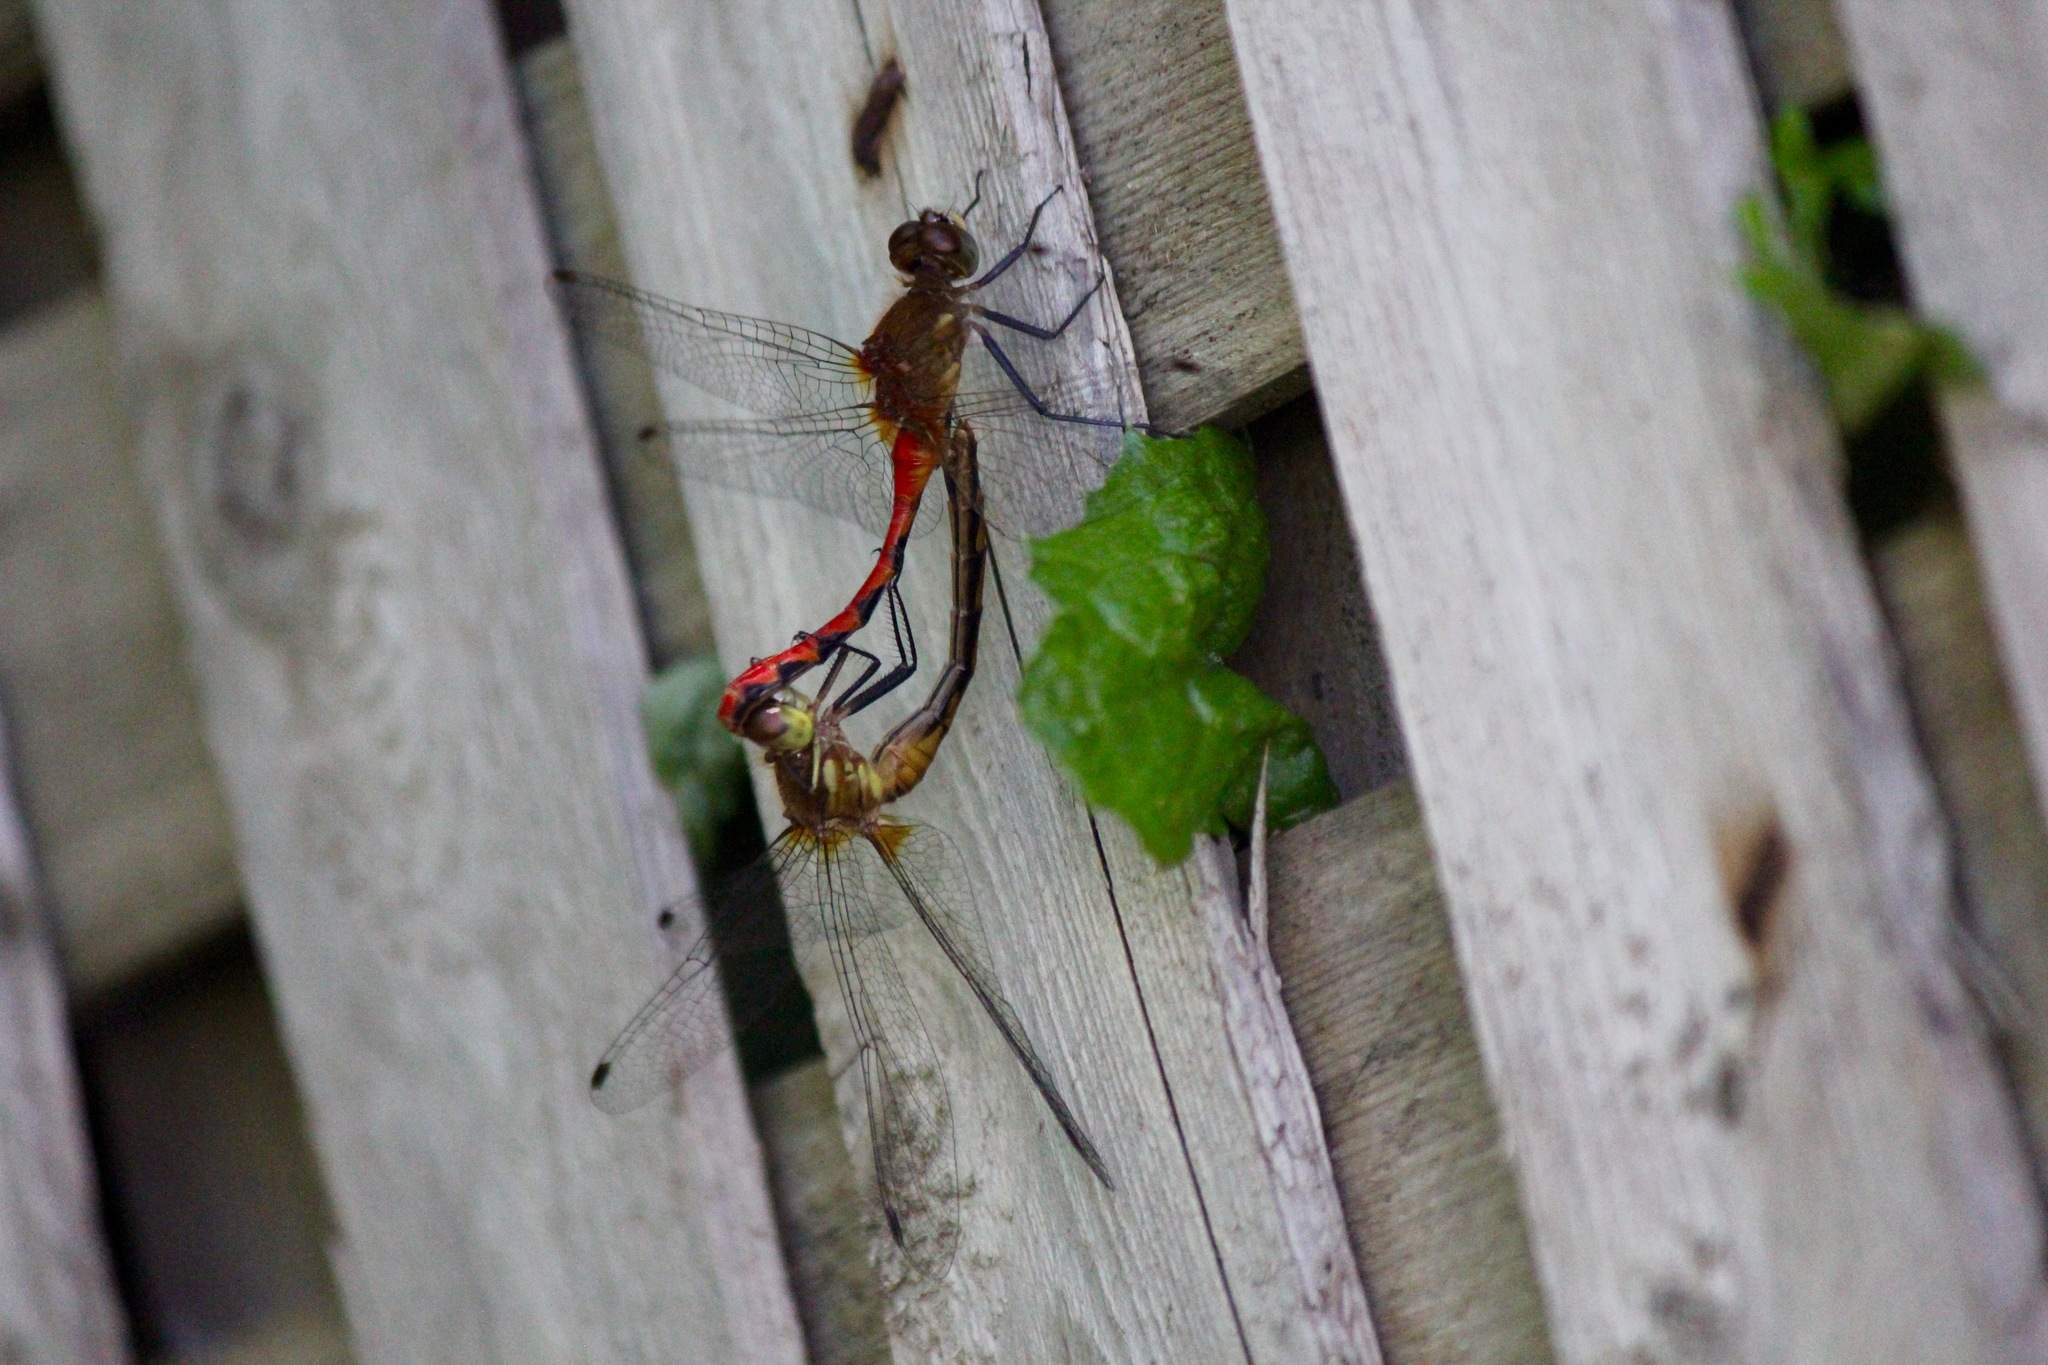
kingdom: Animalia
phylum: Arthropoda
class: Insecta
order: Odonata
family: Libellulidae
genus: Sympetrum
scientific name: Sympetrum obtrusum
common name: White-faced meadowhawk
